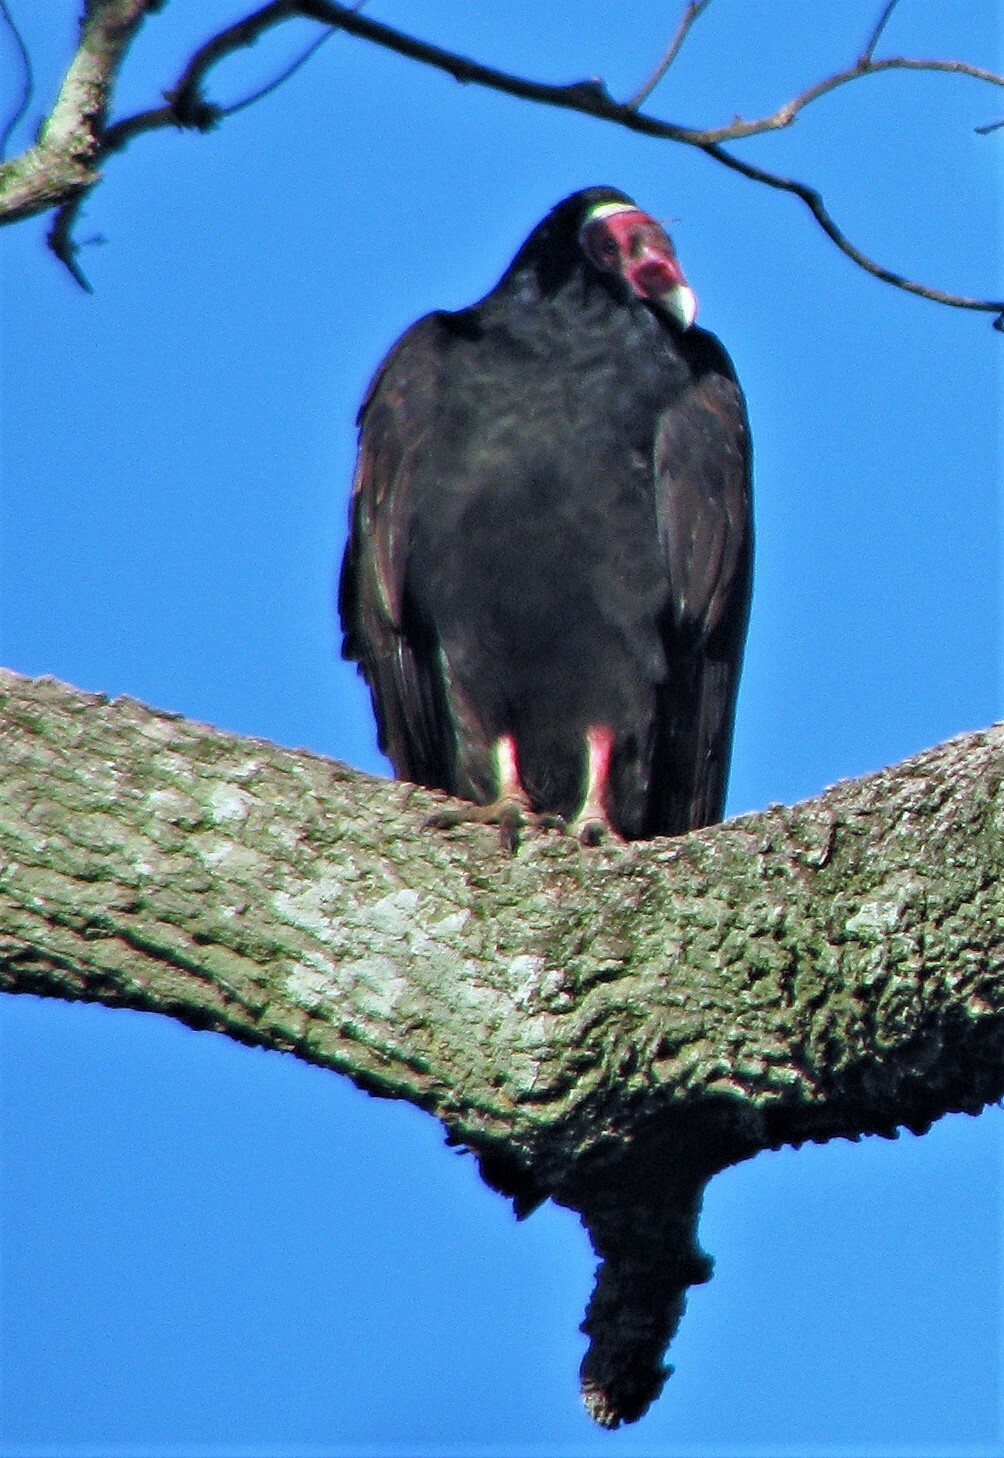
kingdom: Animalia
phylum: Chordata
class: Aves
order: Accipitriformes
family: Cathartidae
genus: Cathartes
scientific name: Cathartes aura
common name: Turkey vulture
